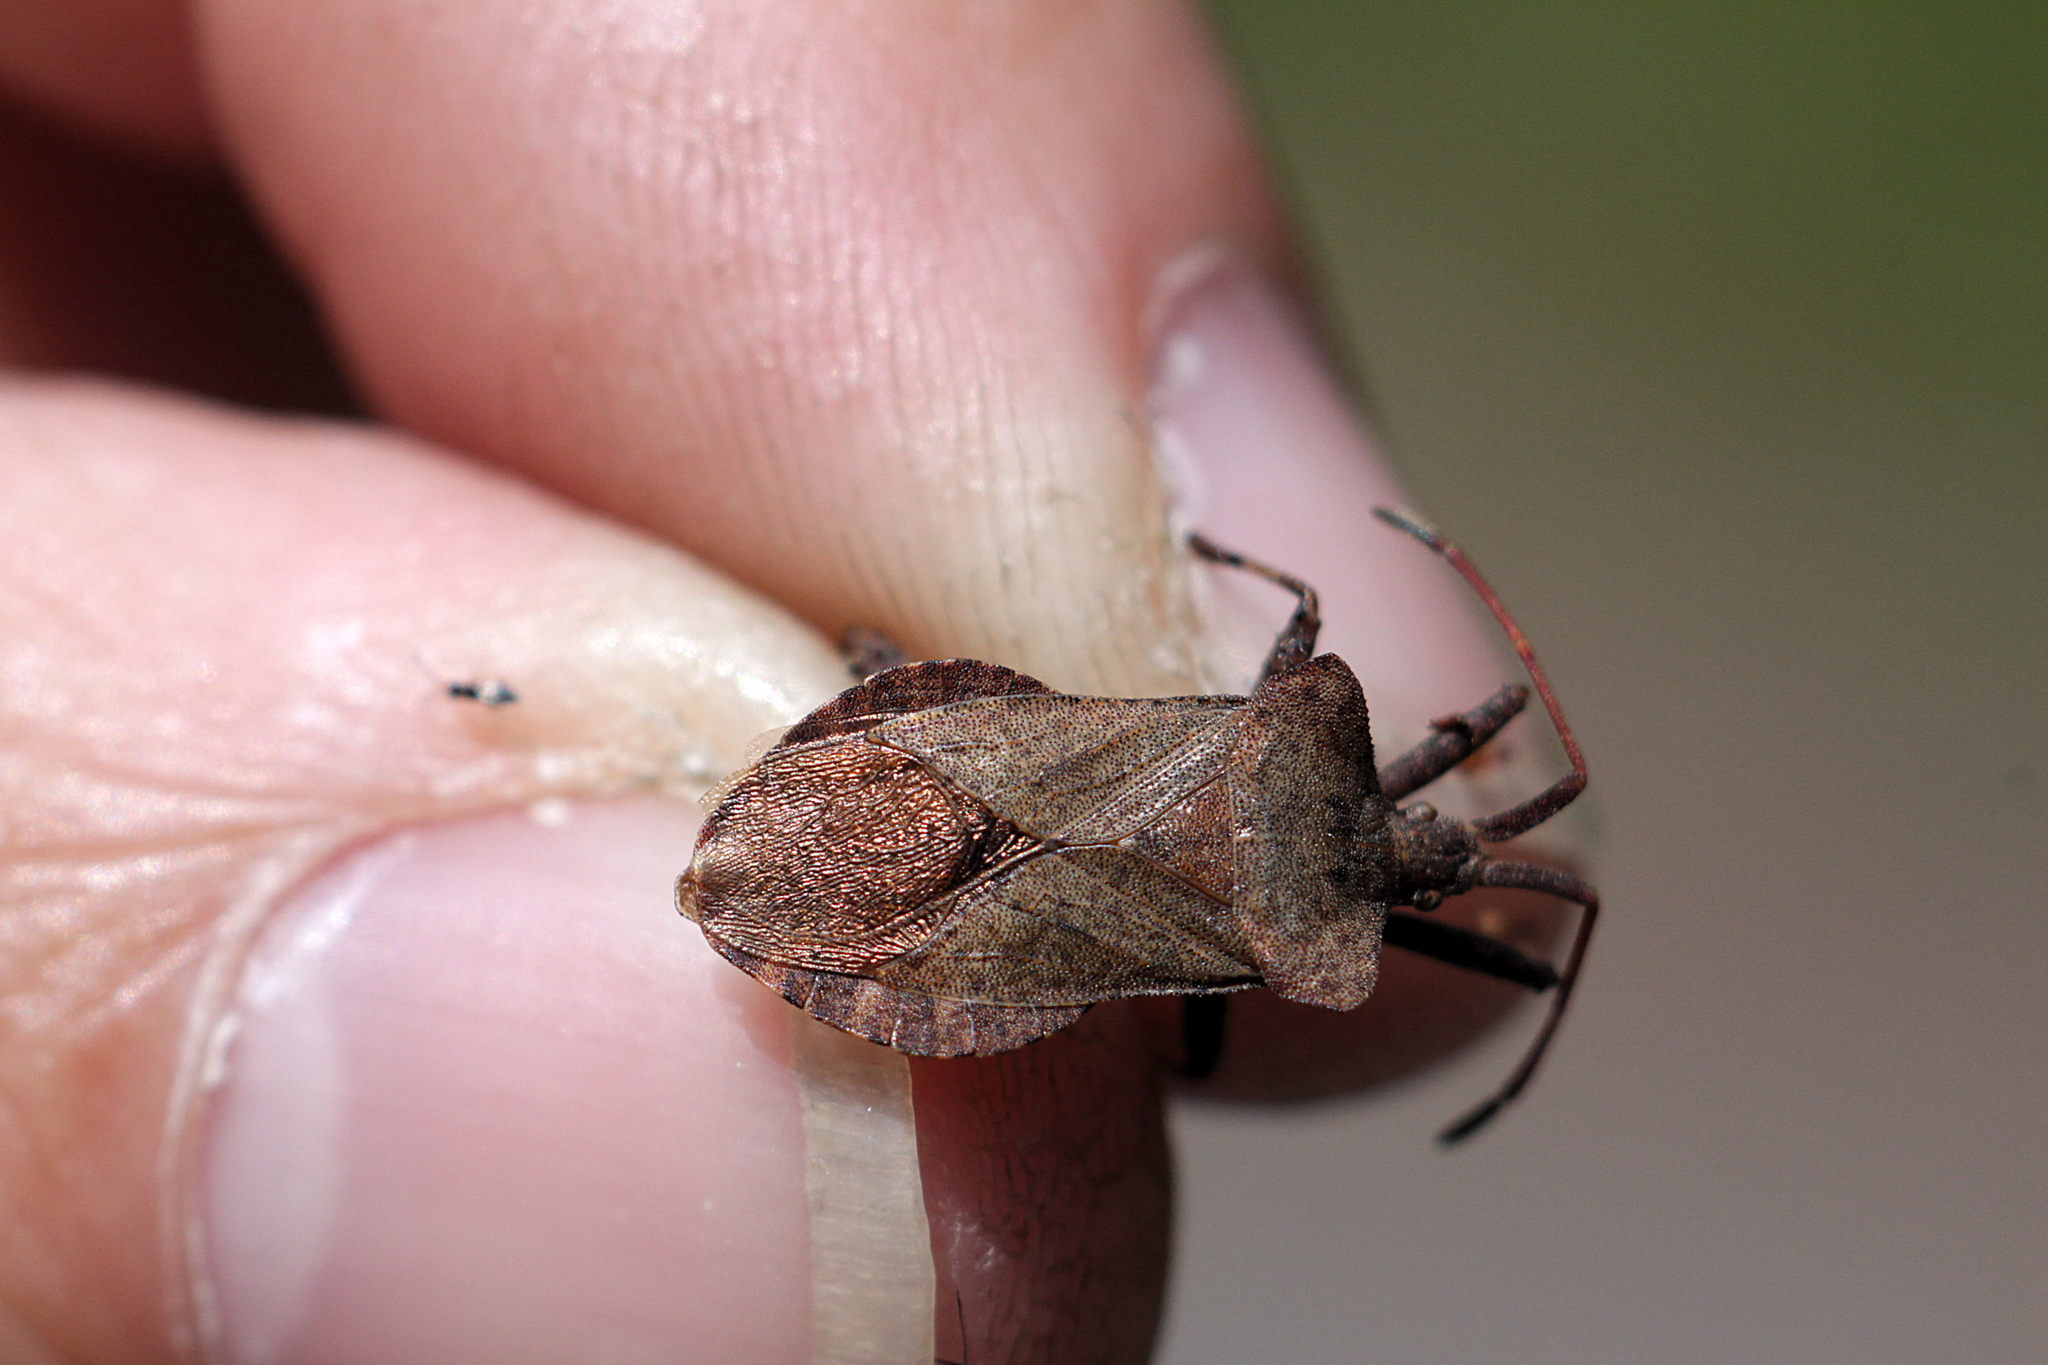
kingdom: Animalia
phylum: Arthropoda
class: Insecta
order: Hemiptera
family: Coreidae
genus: Coreus
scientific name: Coreus marginatus
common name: Dock bug
